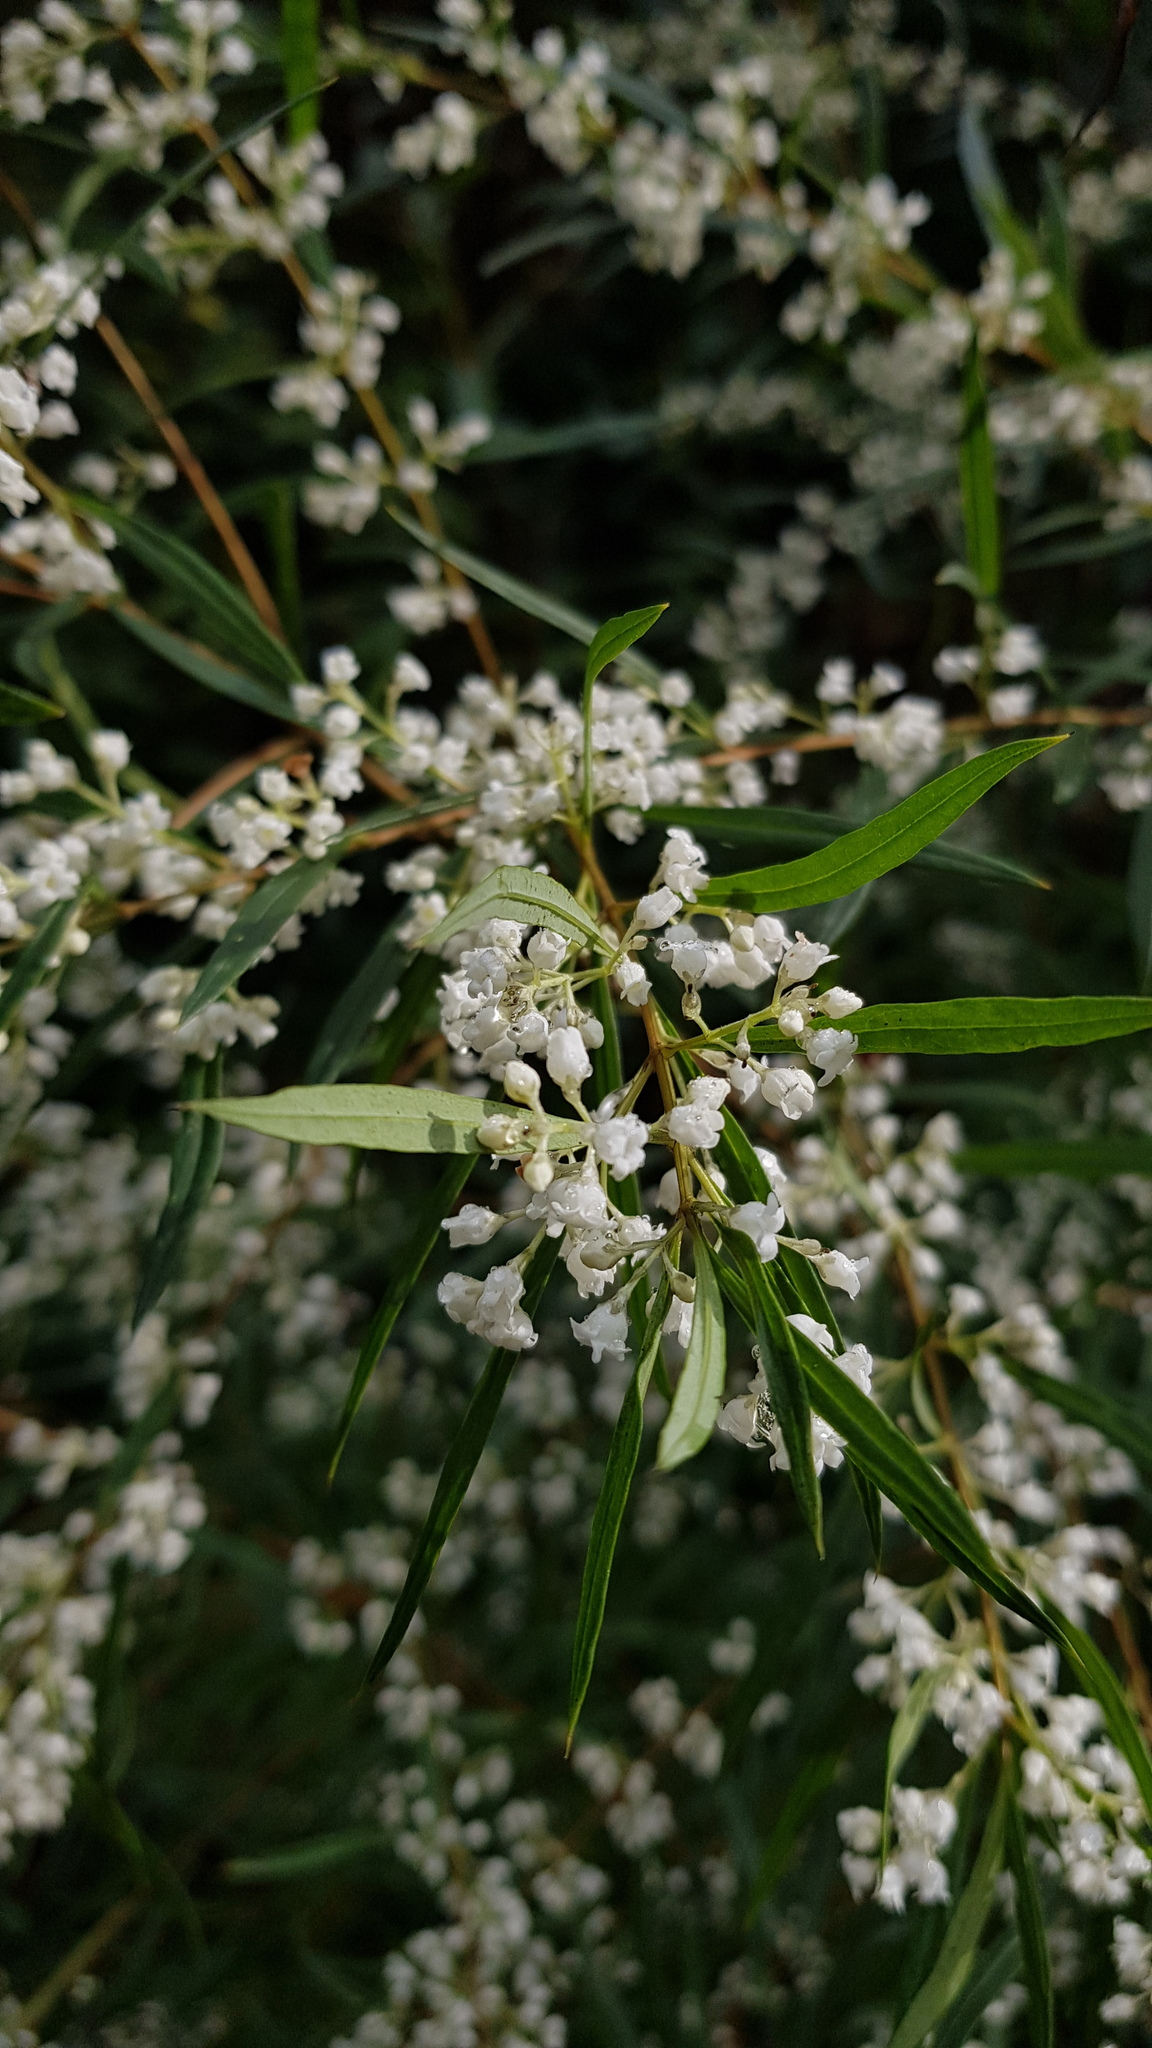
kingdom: Plantae
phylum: Tracheophyta
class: Magnoliopsida
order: Gentianales
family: Loganiaceae
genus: Logania
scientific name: Logania albiflora
